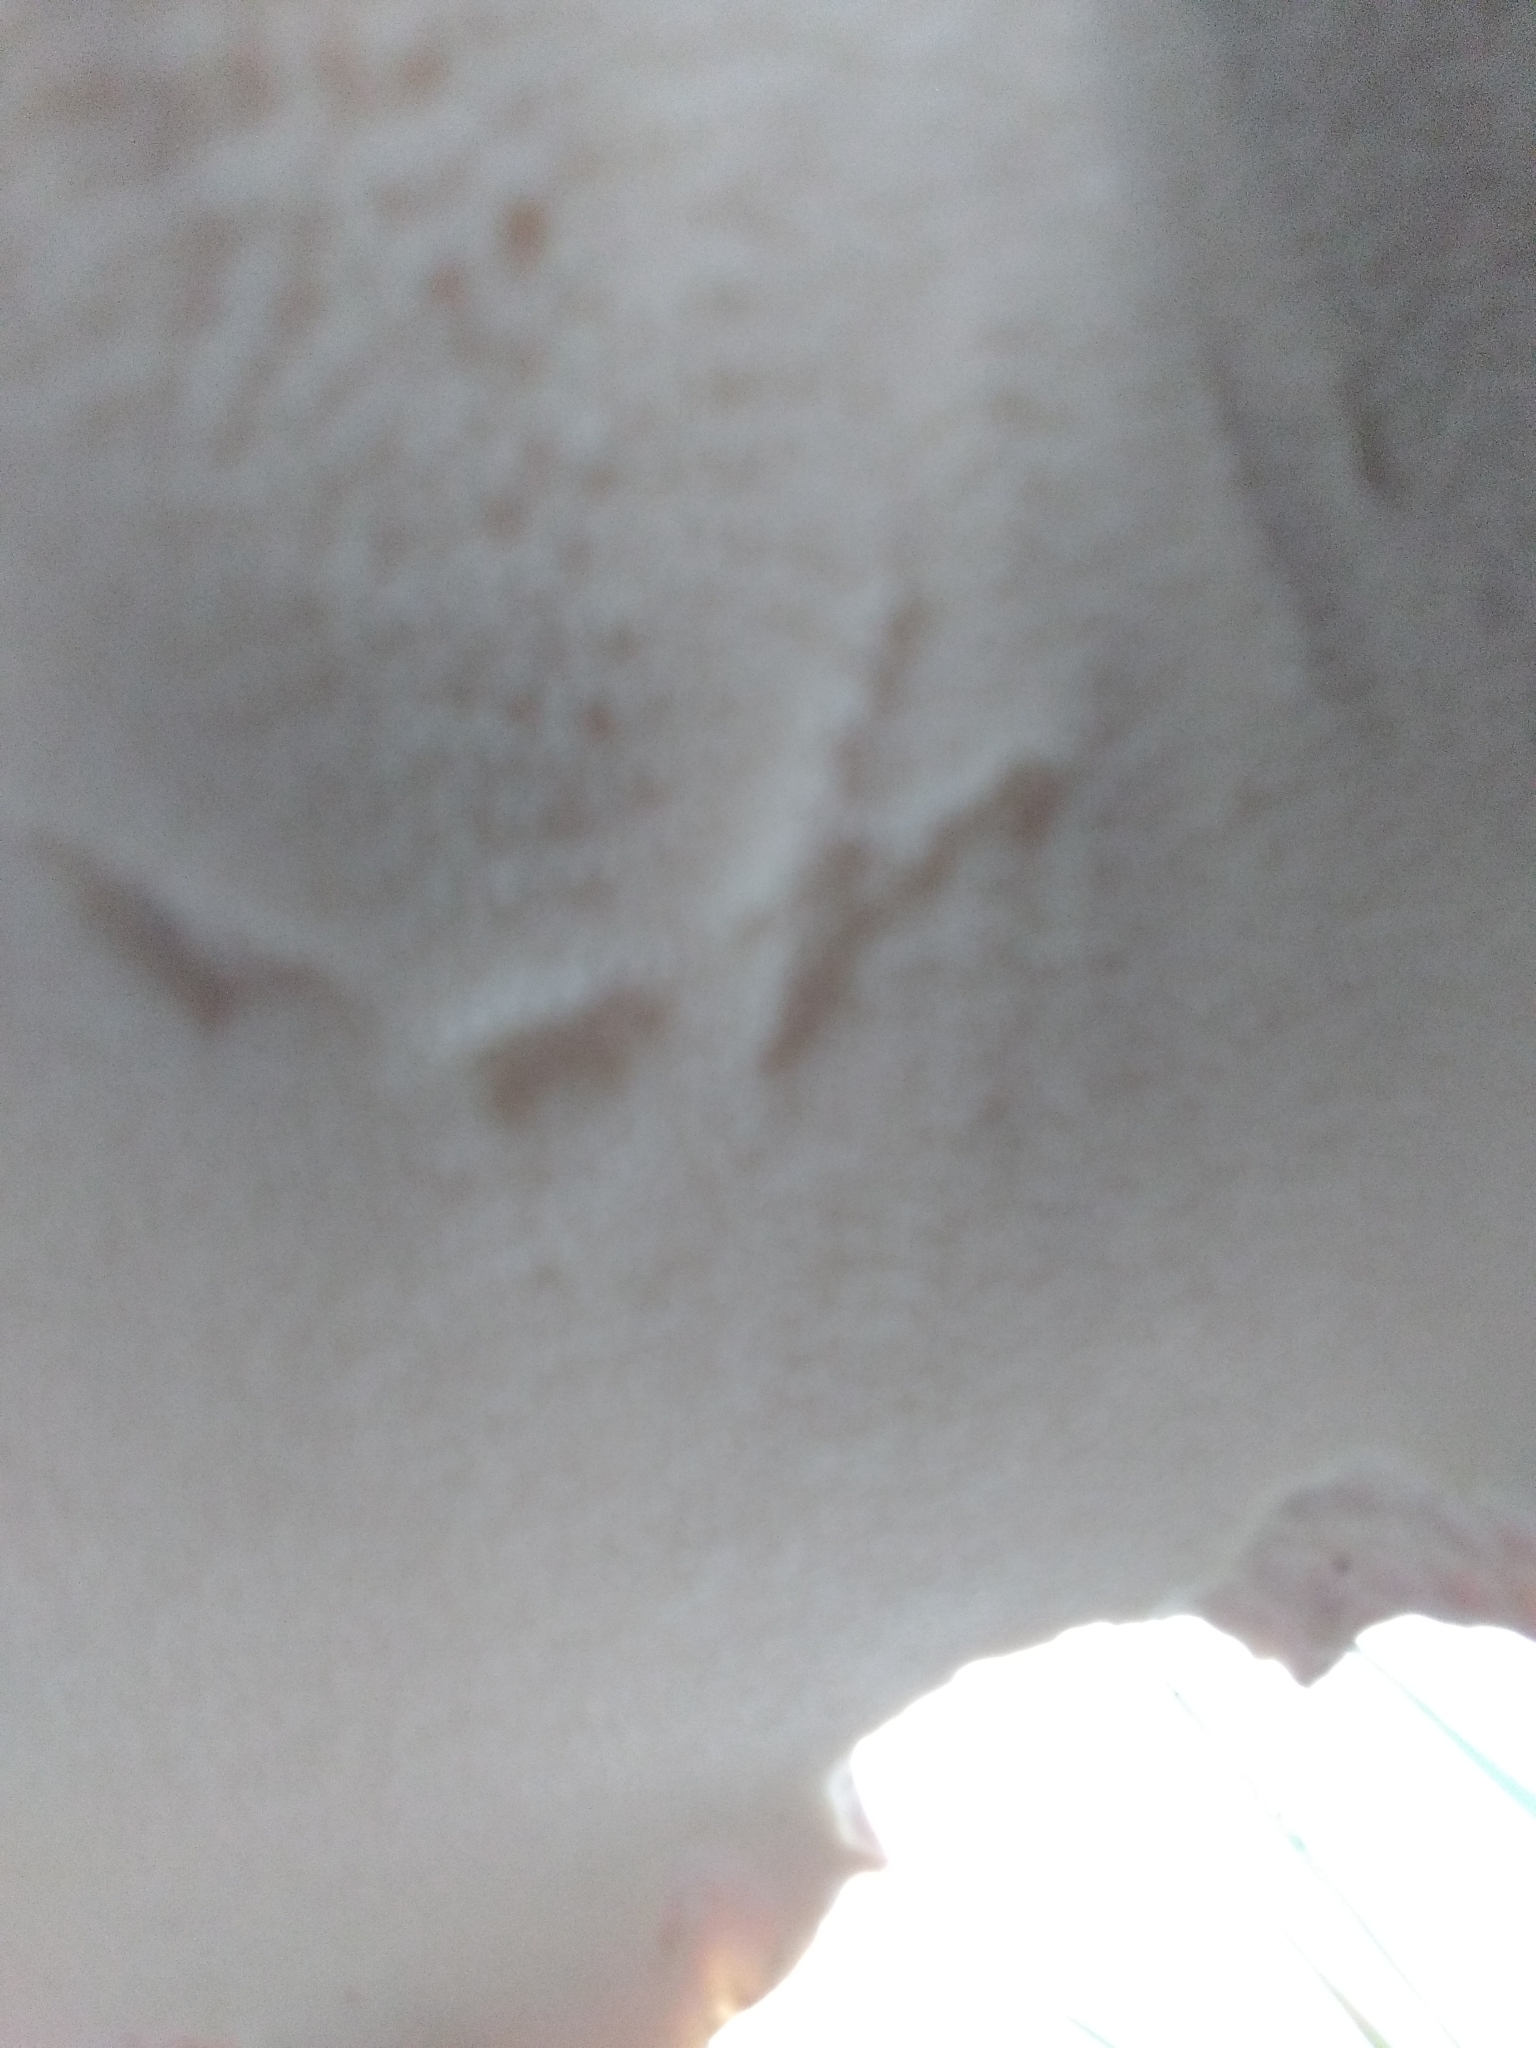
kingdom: Fungi
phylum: Basidiomycota
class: Agaricomycetes
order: Polyporales
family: Polyporaceae
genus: Cerioporus
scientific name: Cerioporus squamosus
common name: Dryad's saddle
